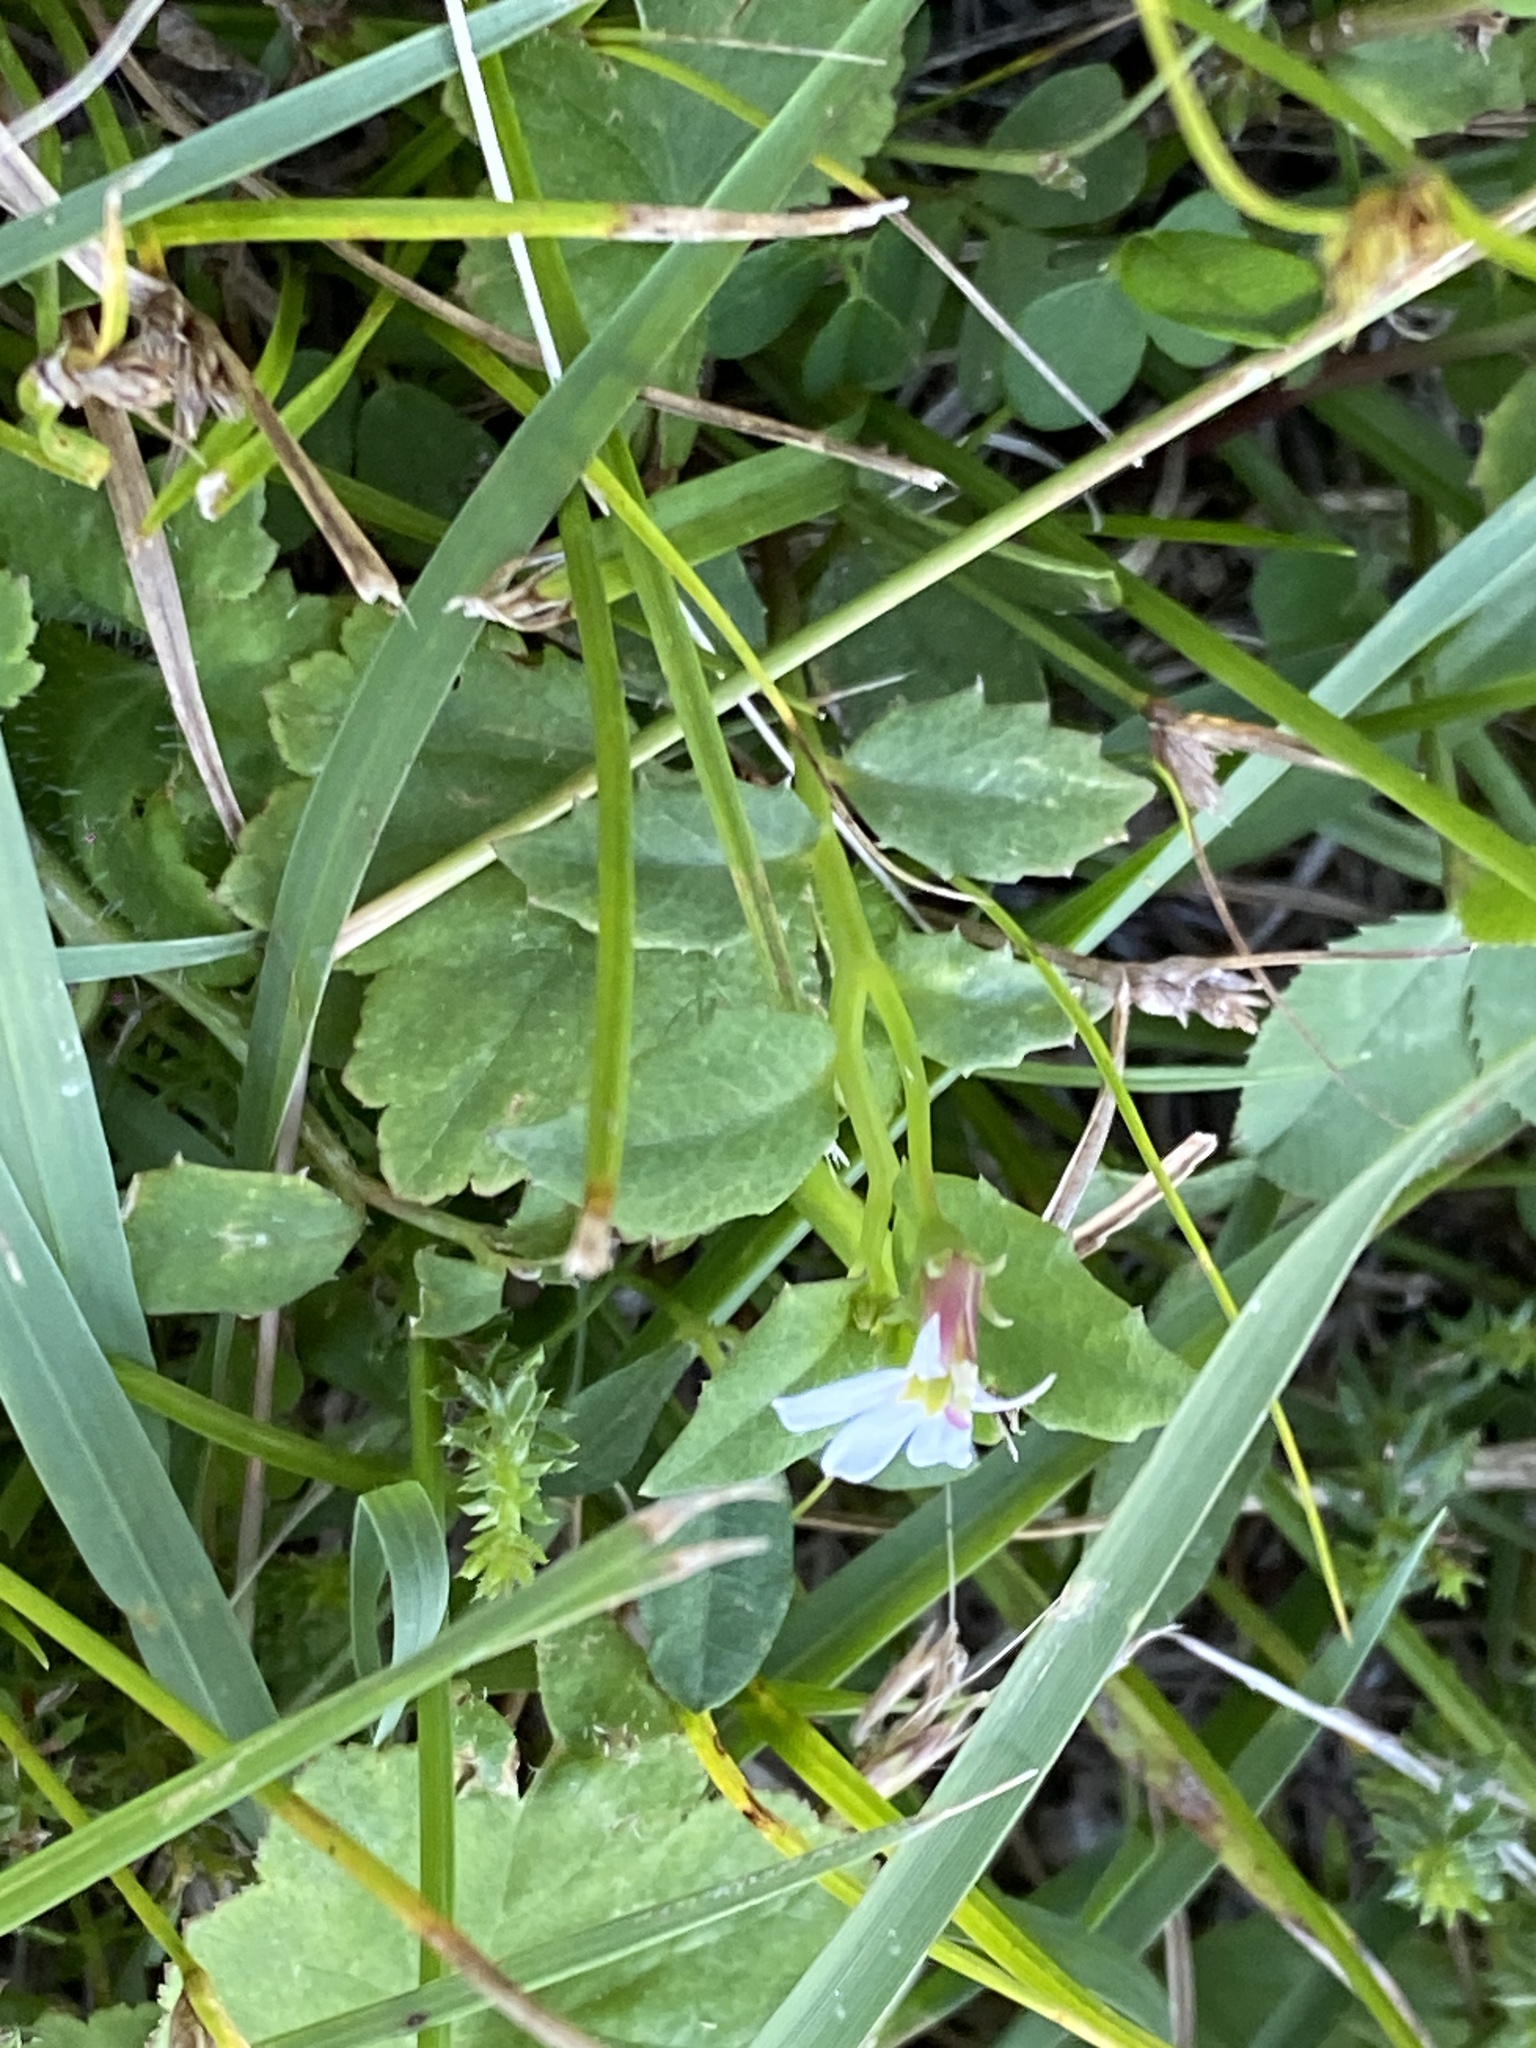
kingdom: Plantae
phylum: Tracheophyta
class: Magnoliopsida
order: Asterales
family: Campanulaceae
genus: Lobelia
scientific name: Lobelia purpurascens
